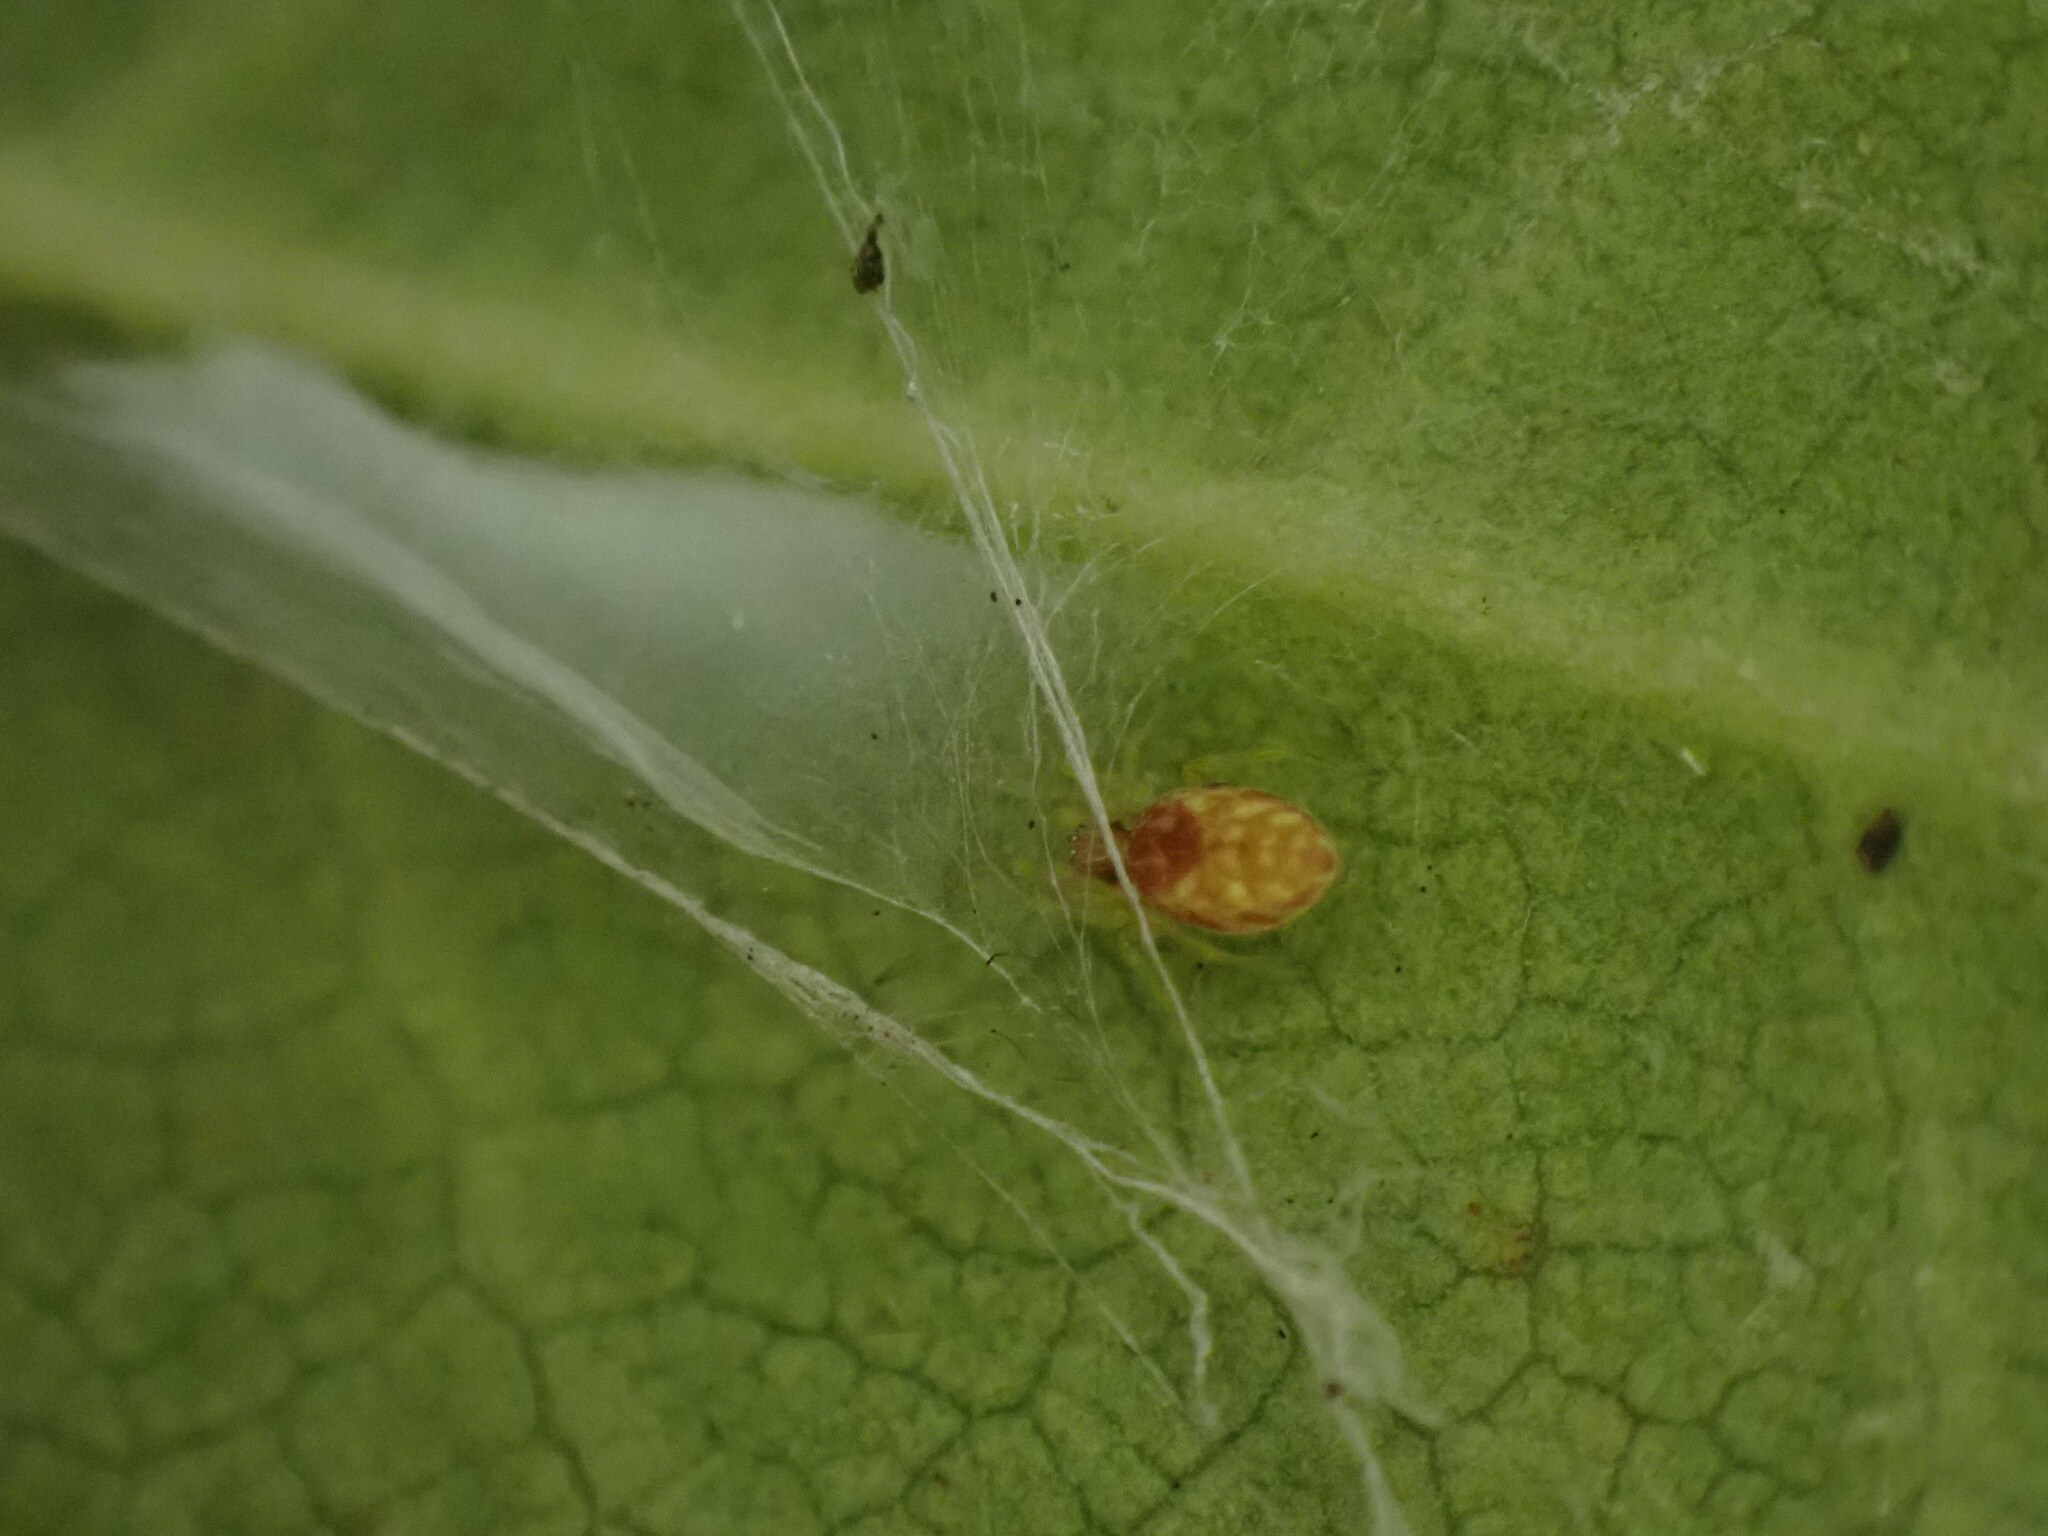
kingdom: Animalia
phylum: Arthropoda
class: Arachnida
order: Araneae
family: Dictynidae
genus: Nigma
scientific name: Nigma flavescens
